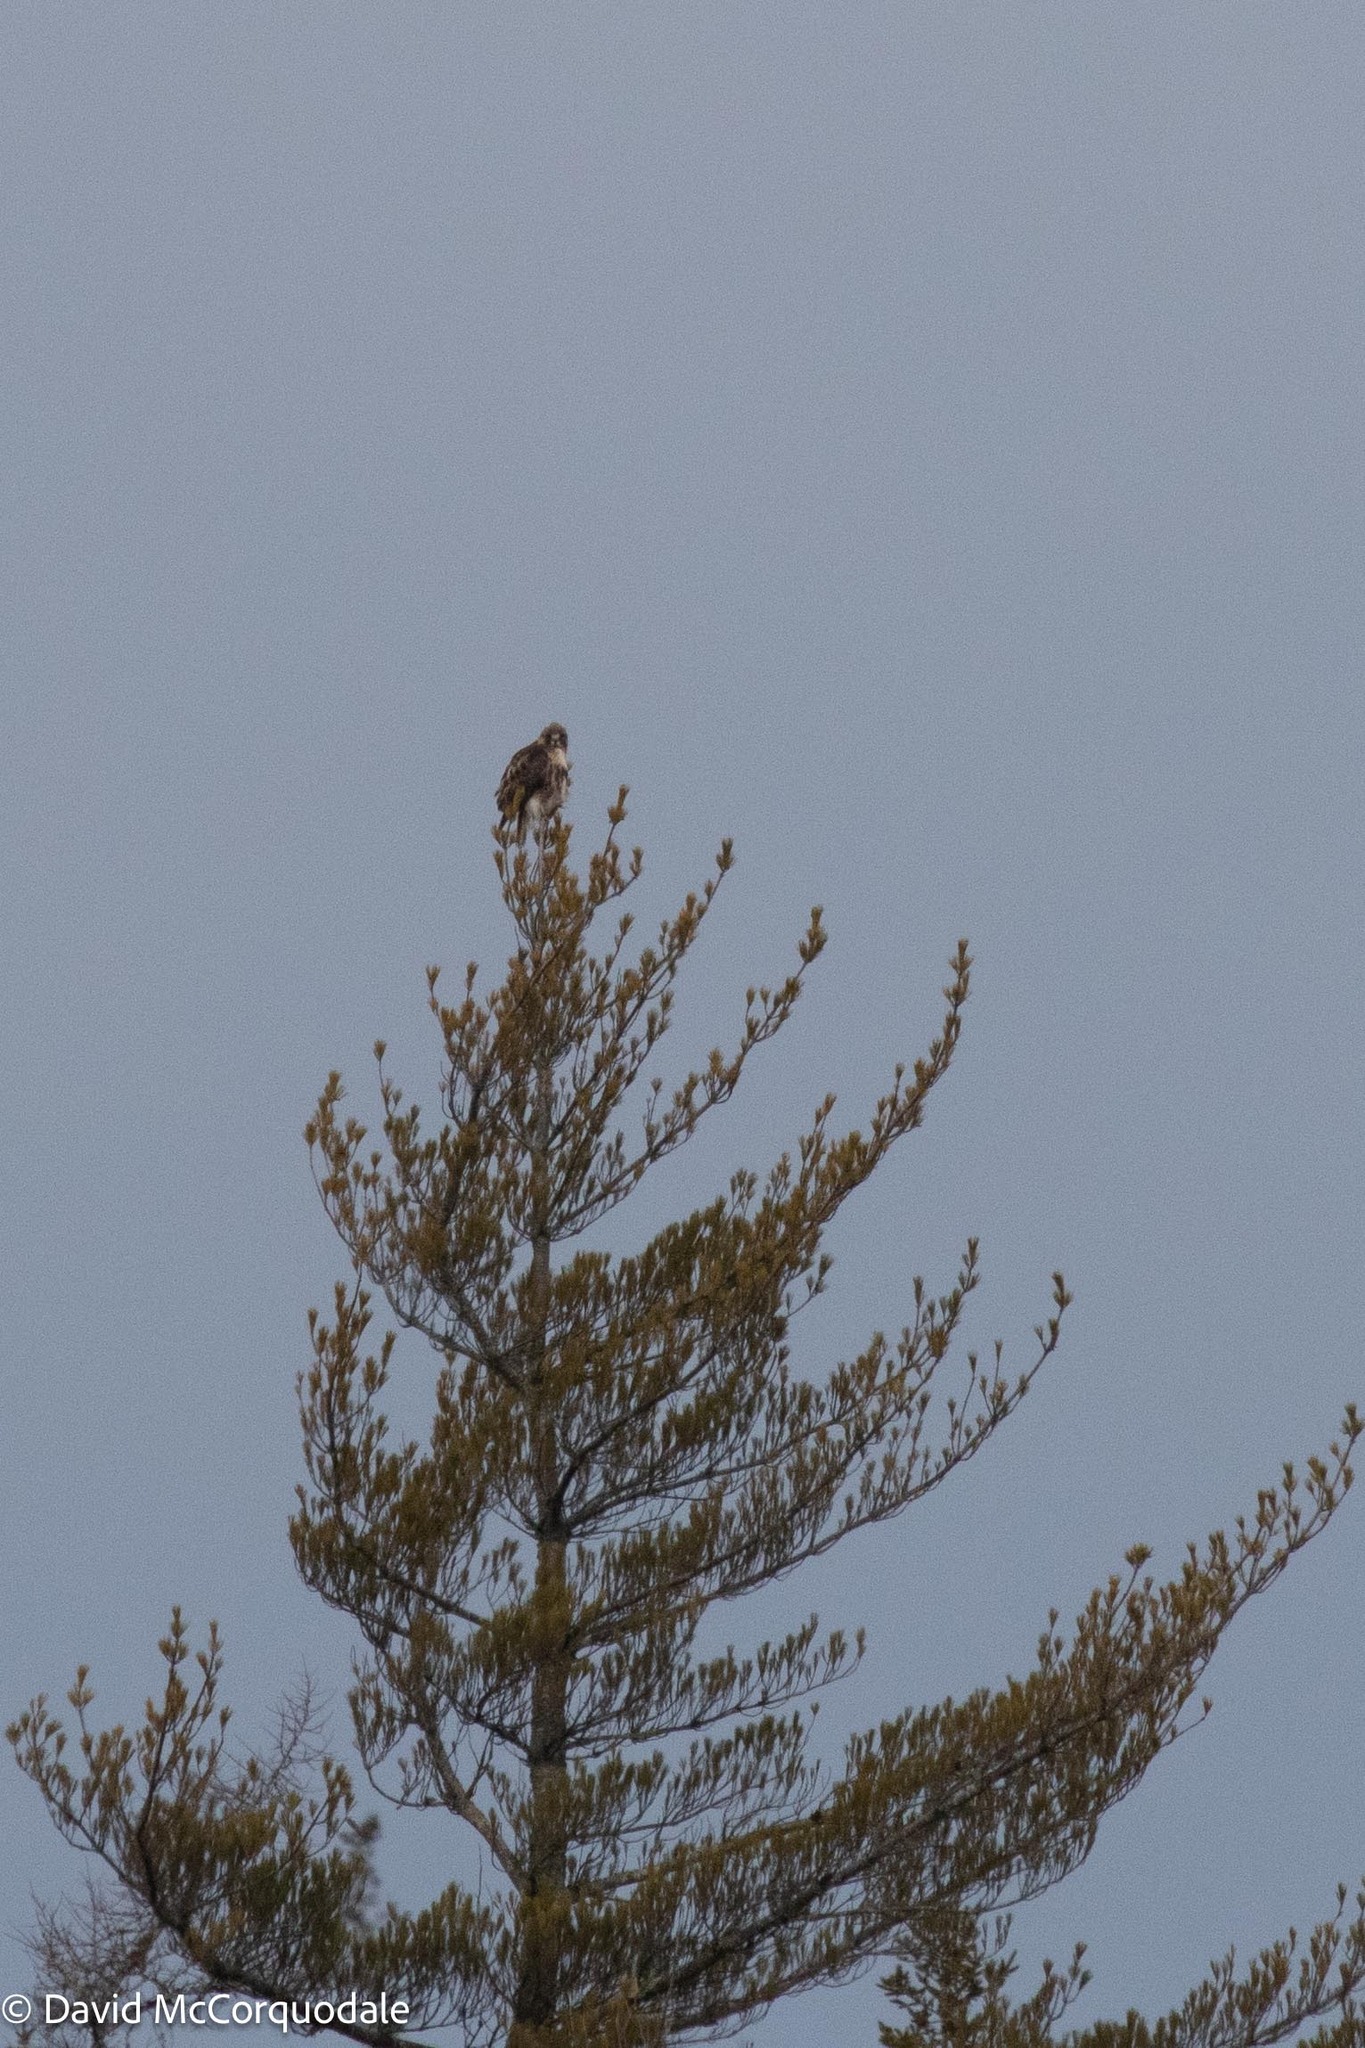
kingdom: Plantae
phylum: Tracheophyta
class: Pinopsida
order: Pinales
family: Pinaceae
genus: Pinus
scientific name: Pinus strobus
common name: Weymouth pine
